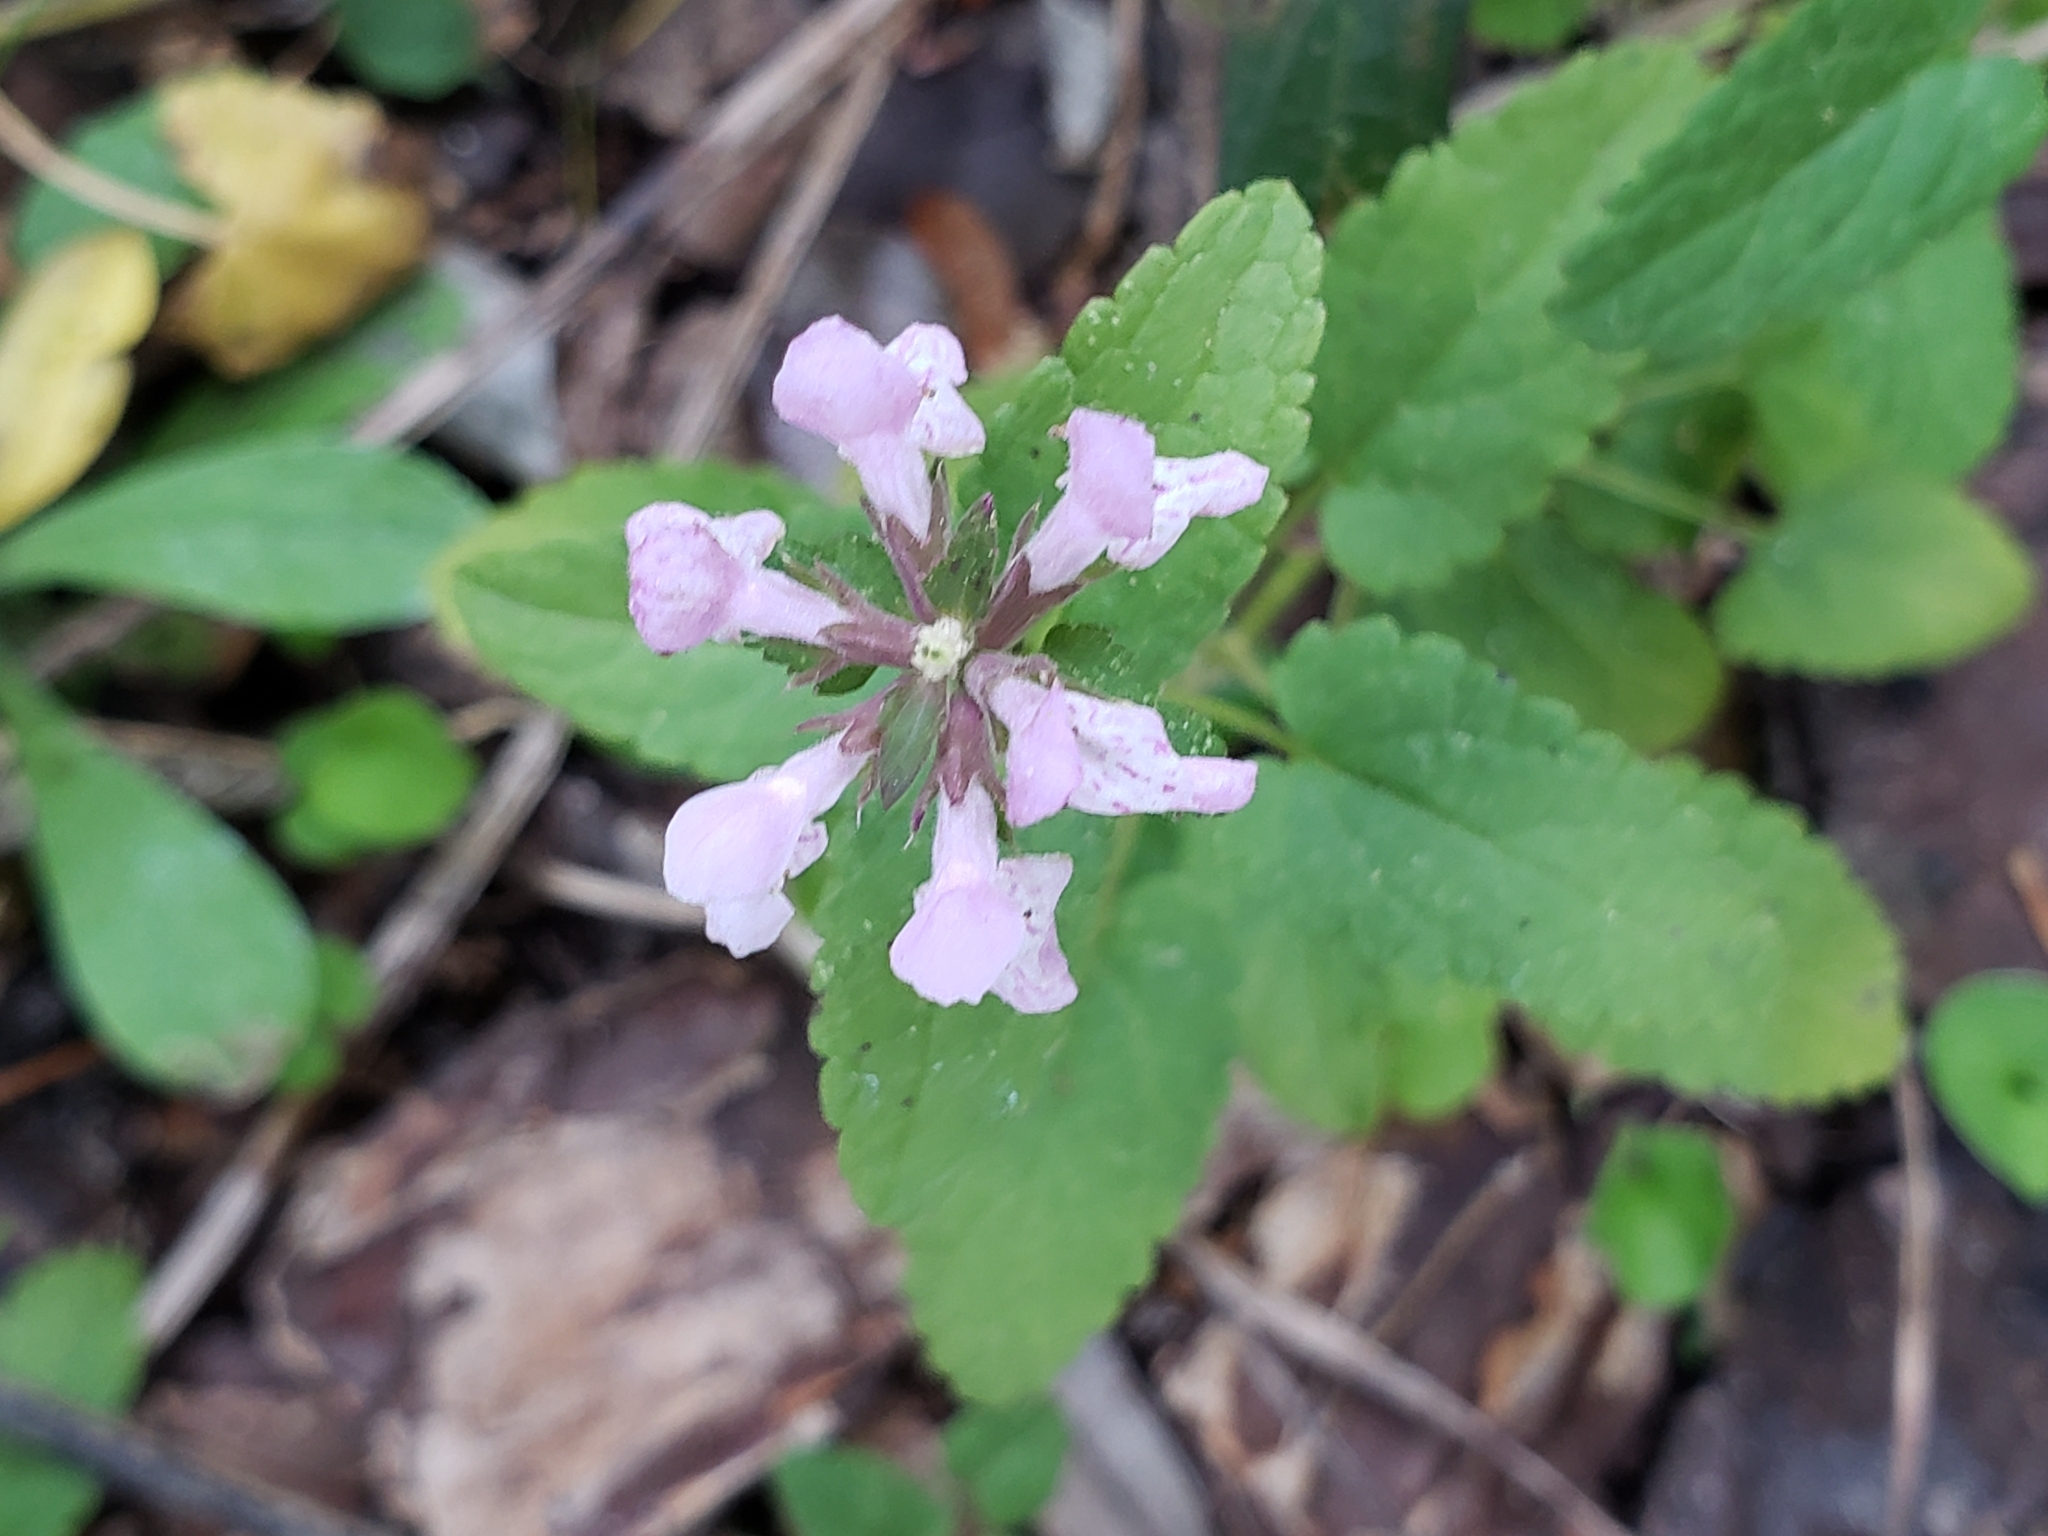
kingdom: Plantae
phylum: Tracheophyta
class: Magnoliopsida
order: Lamiales
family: Lamiaceae
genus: Stachys
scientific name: Stachys floridana
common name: Florida betony
